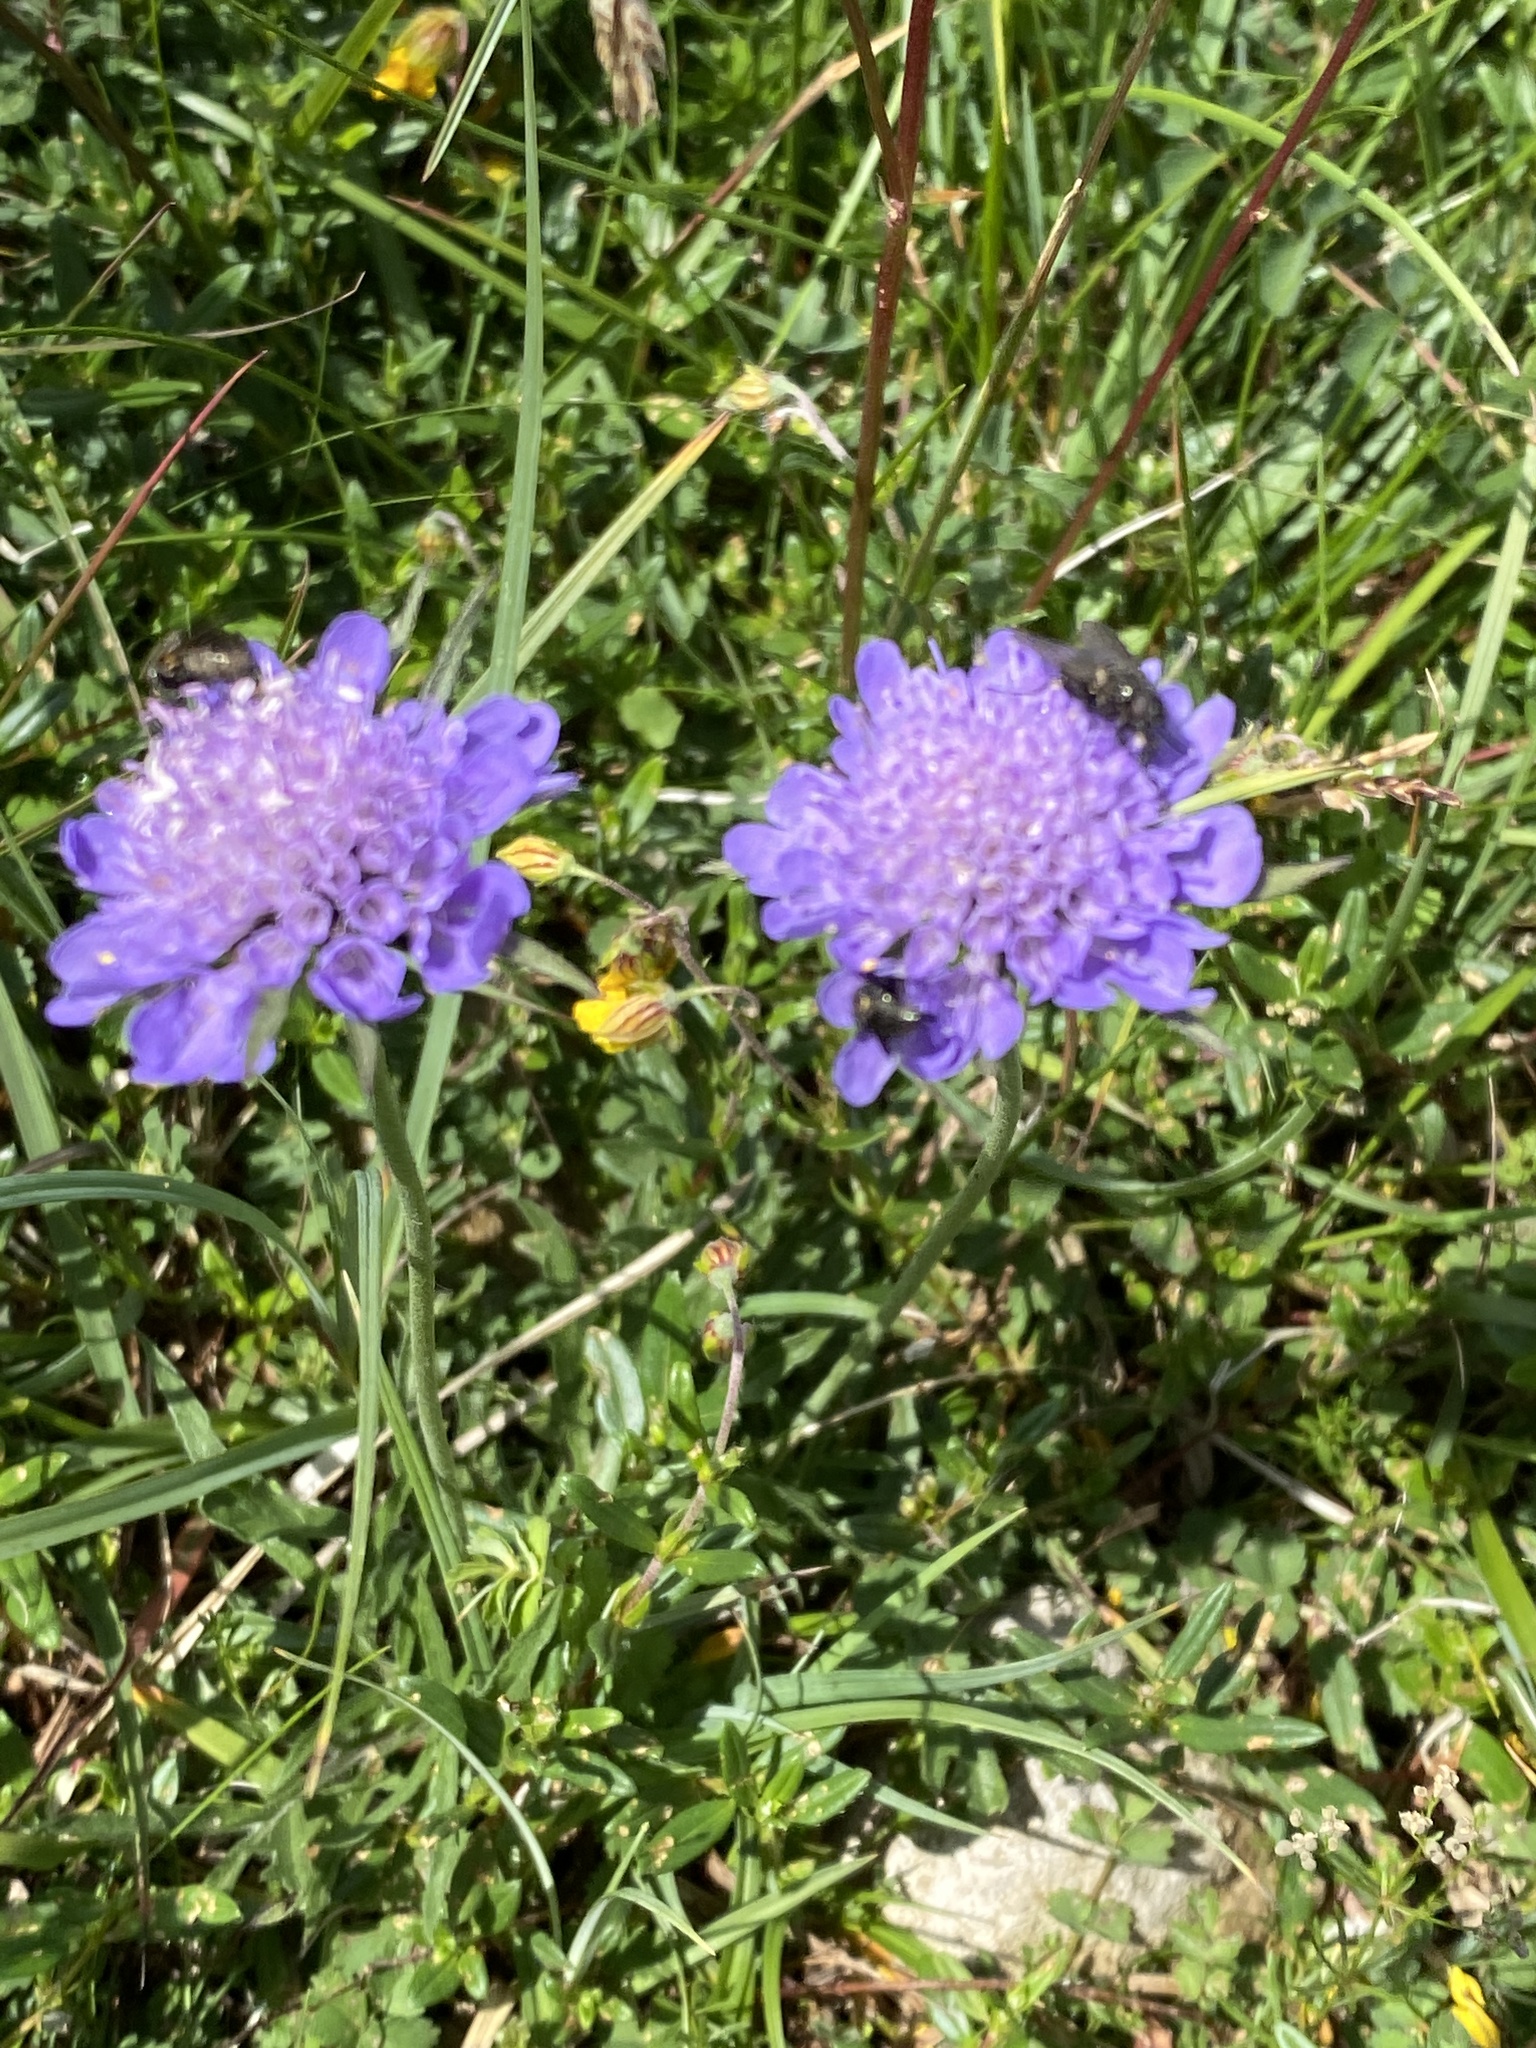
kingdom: Plantae
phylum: Tracheophyta
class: Magnoliopsida
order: Dipsacales
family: Caprifoliaceae
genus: Knautia
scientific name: Knautia arvensis
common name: Field scabiosa
